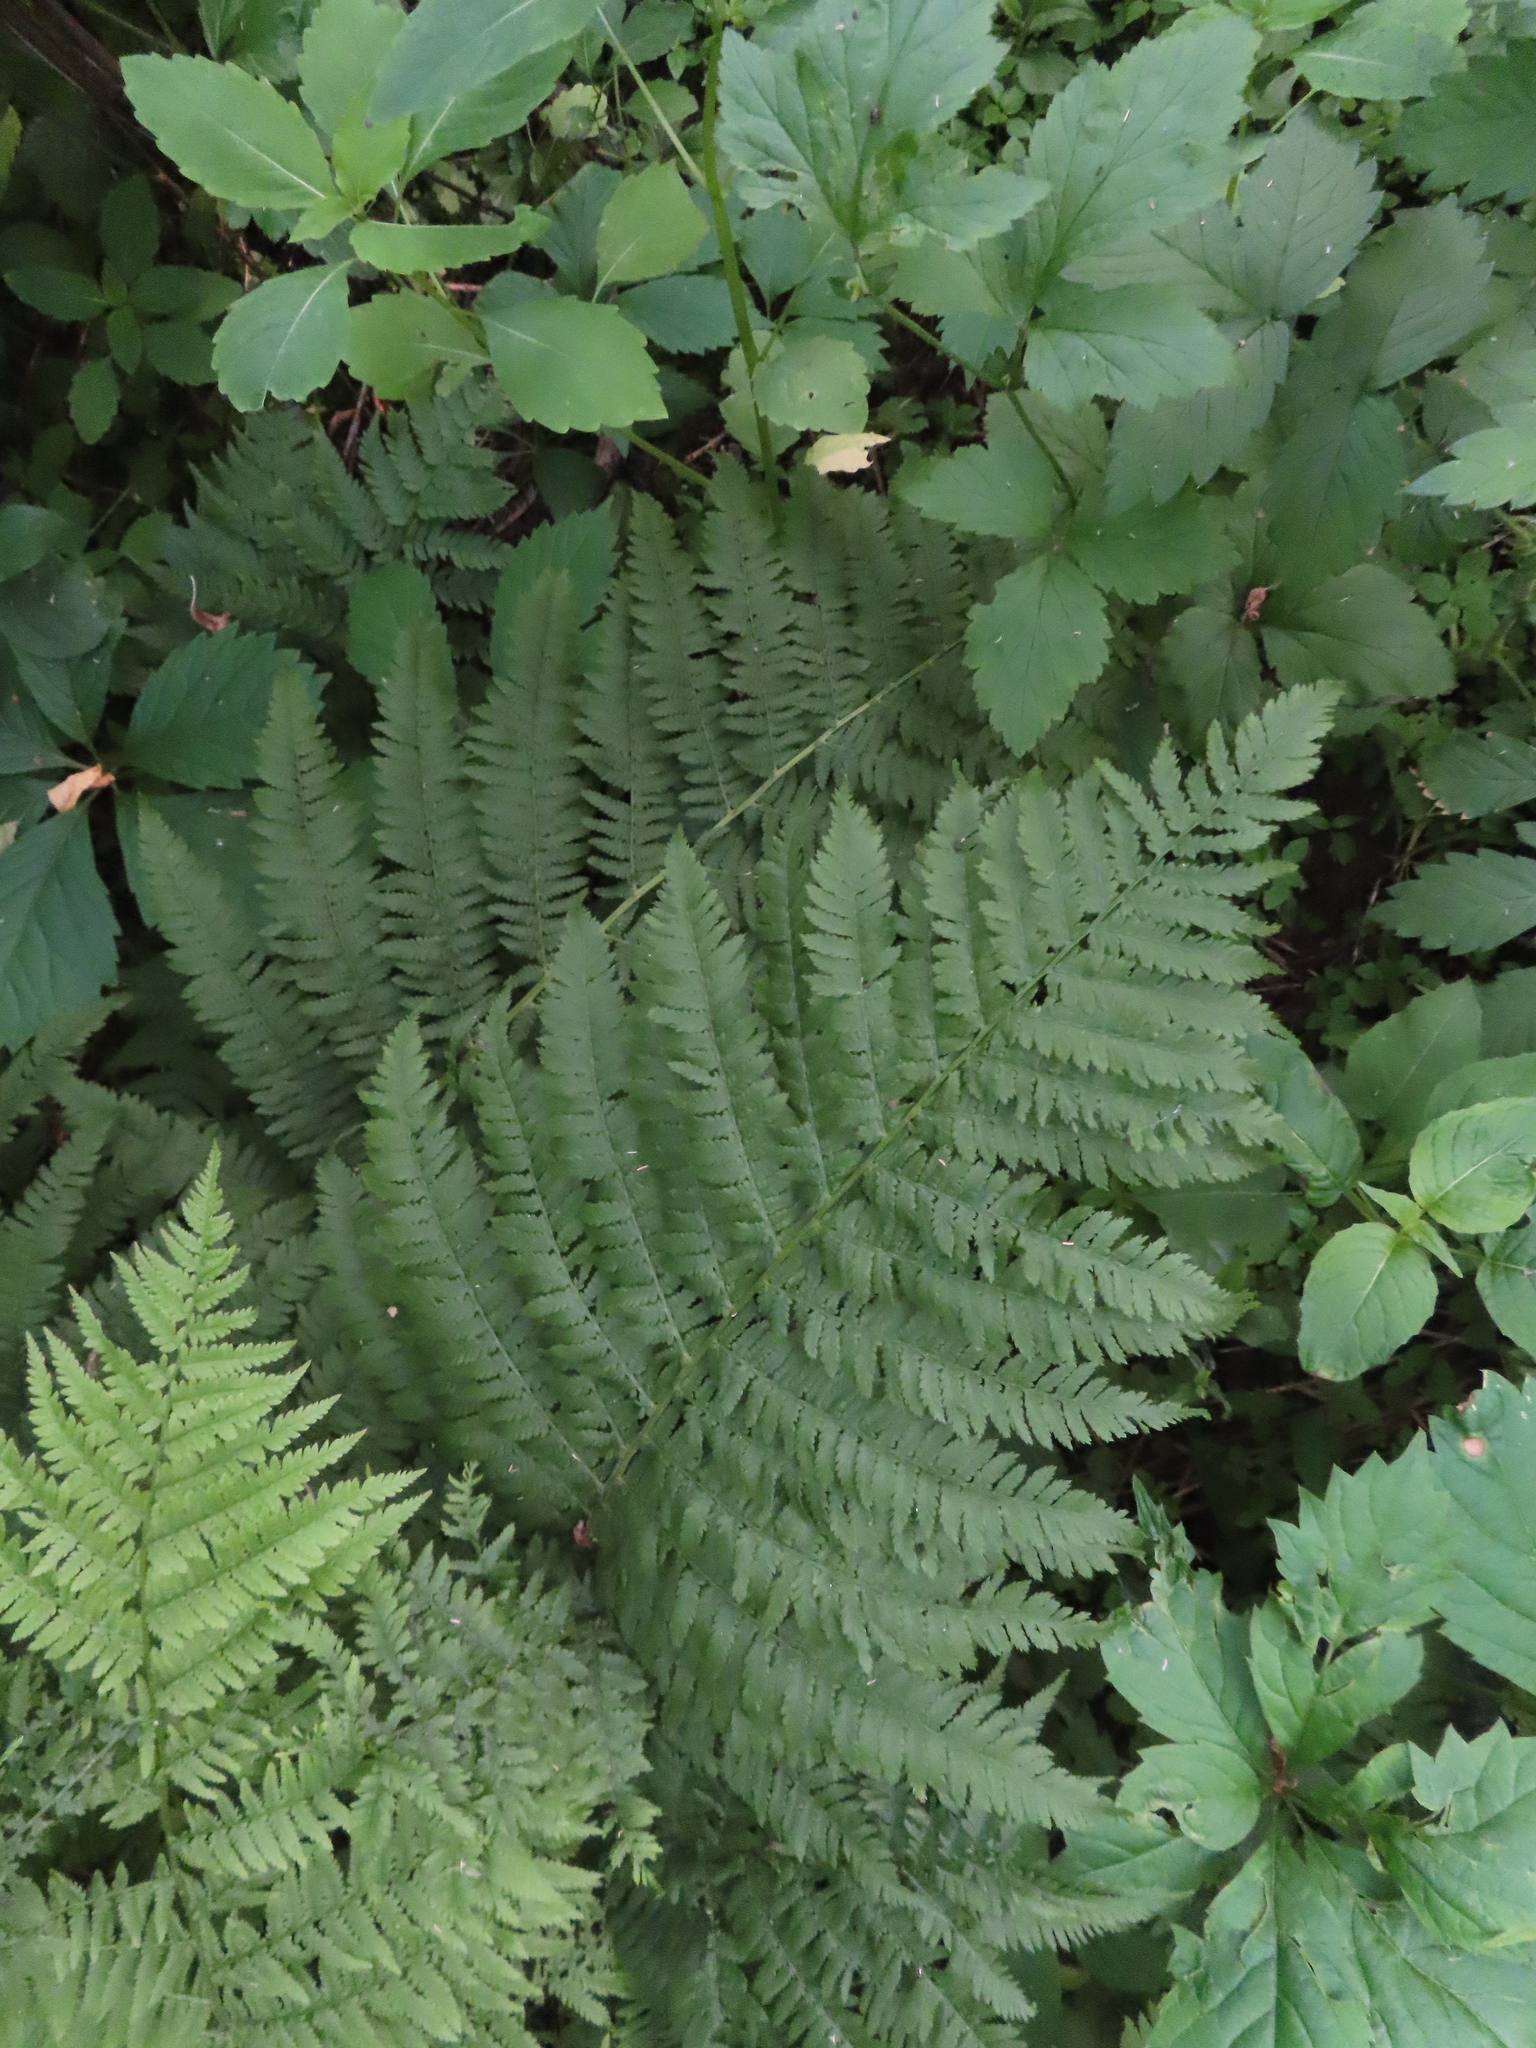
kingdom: Plantae
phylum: Tracheophyta
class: Polypodiopsida
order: Polypodiales
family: Athyriaceae
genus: Athyrium
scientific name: Athyrium angustum
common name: Northern lady fern
